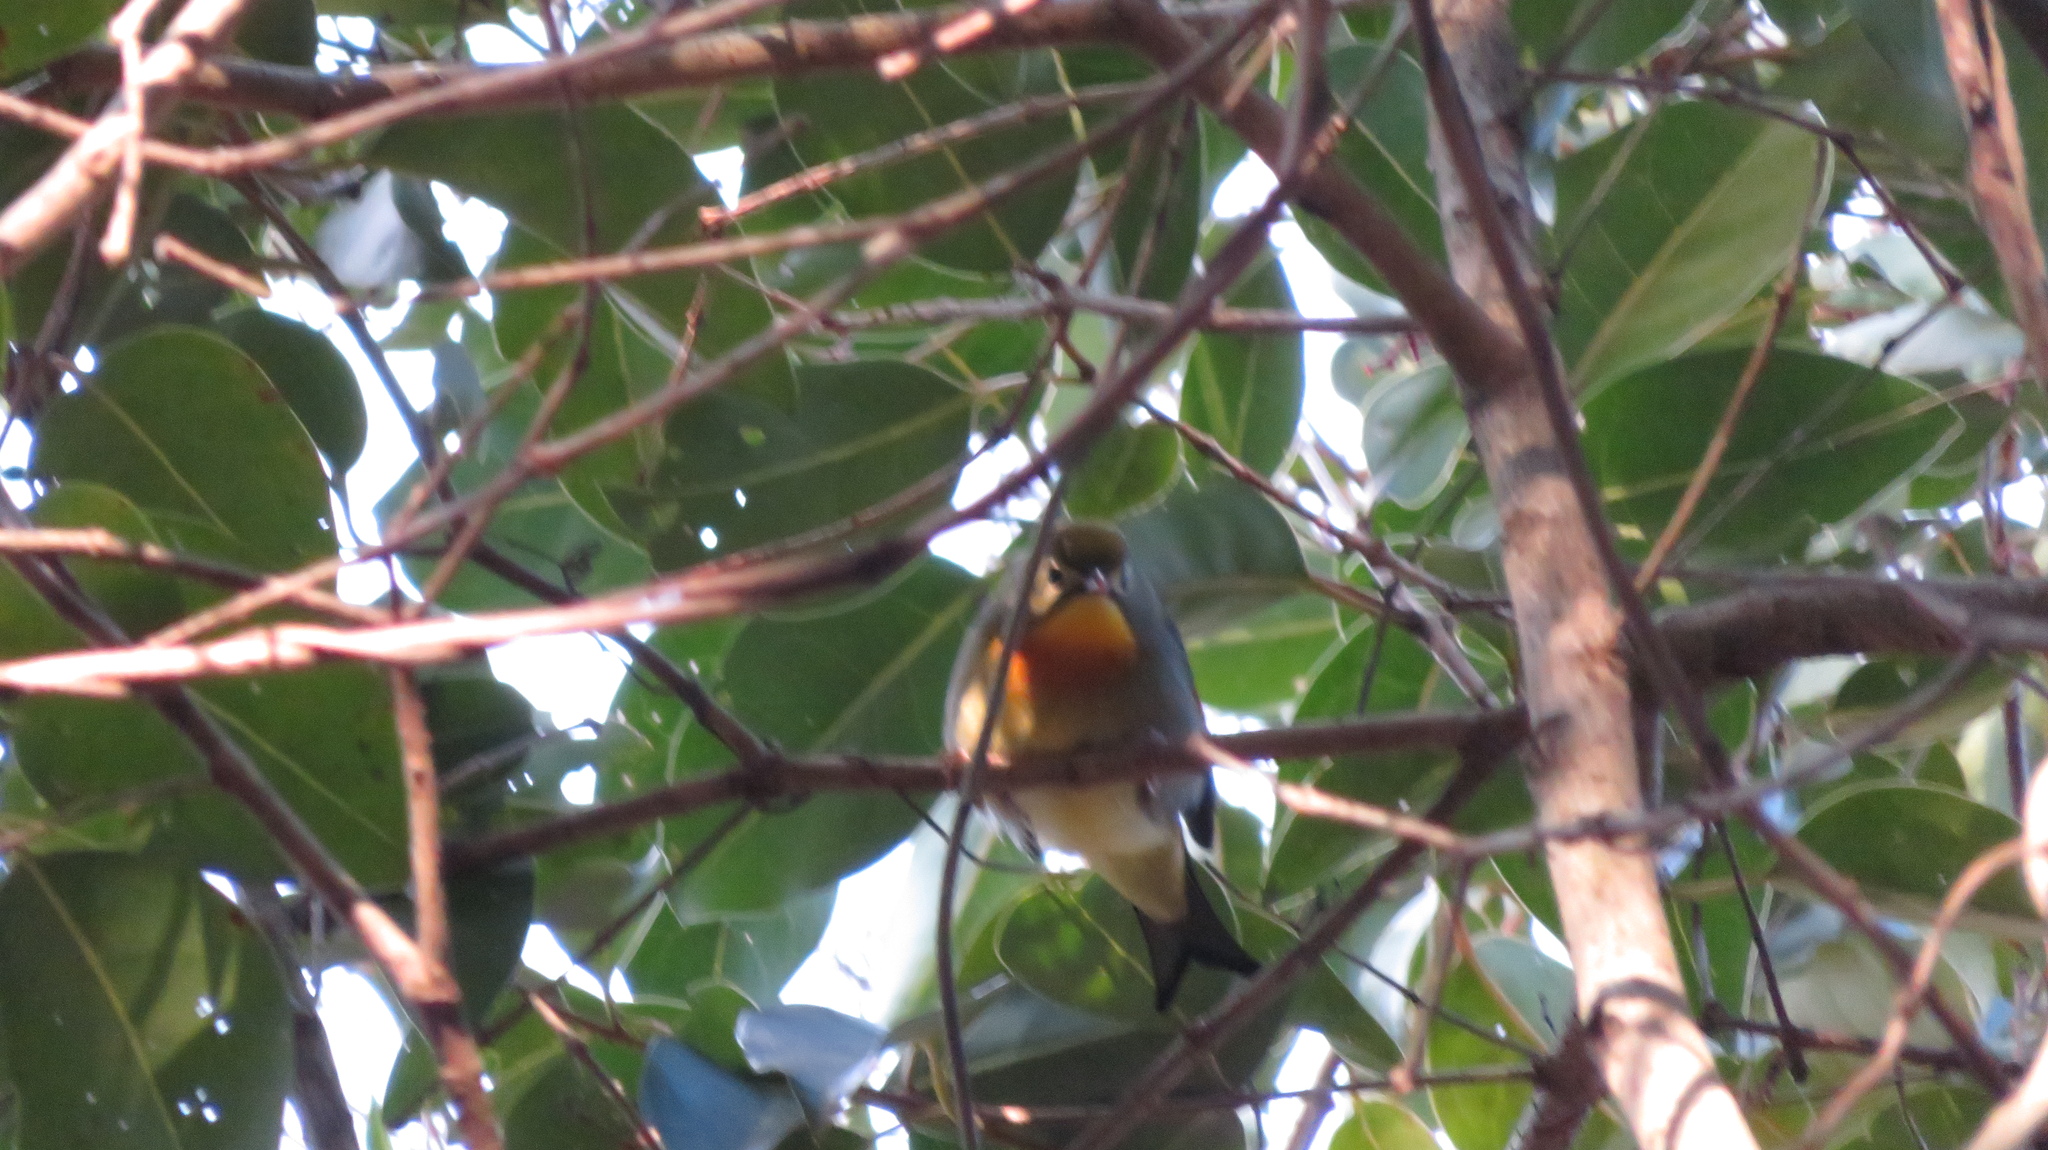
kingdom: Animalia
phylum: Chordata
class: Aves
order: Passeriformes
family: Leiothrichidae
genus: Leiothrix
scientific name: Leiothrix lutea
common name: Red-billed leiothrix
